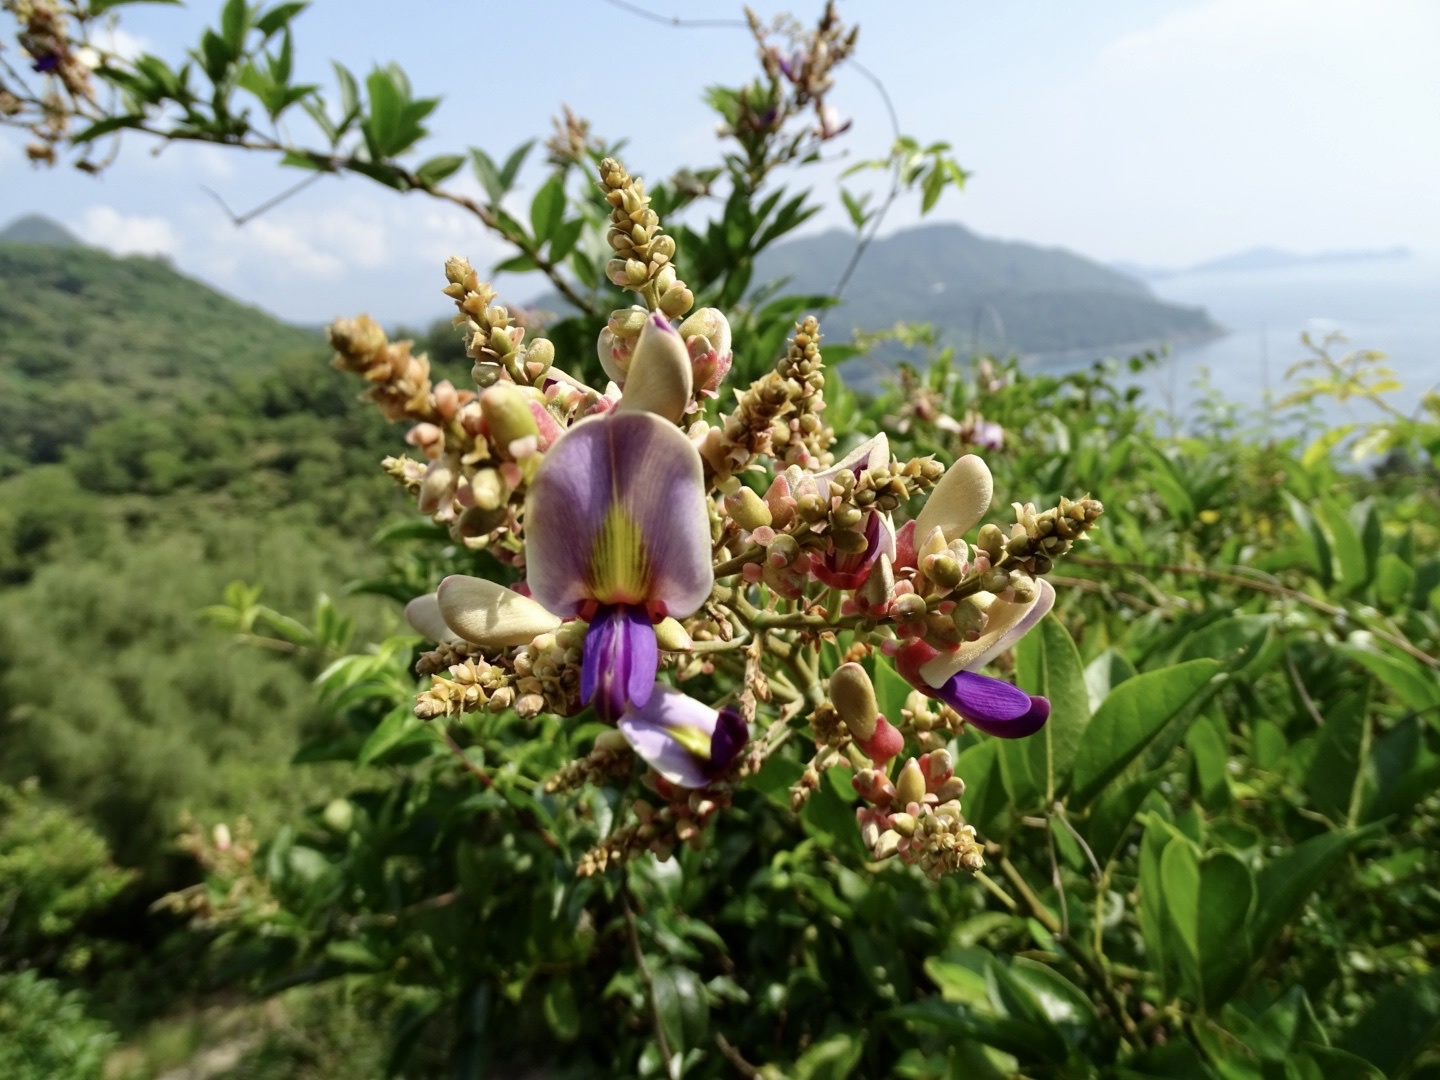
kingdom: Plantae
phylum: Tracheophyta
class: Magnoliopsida
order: Fabales
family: Fabaceae
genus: Callerya
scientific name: Callerya nitida
